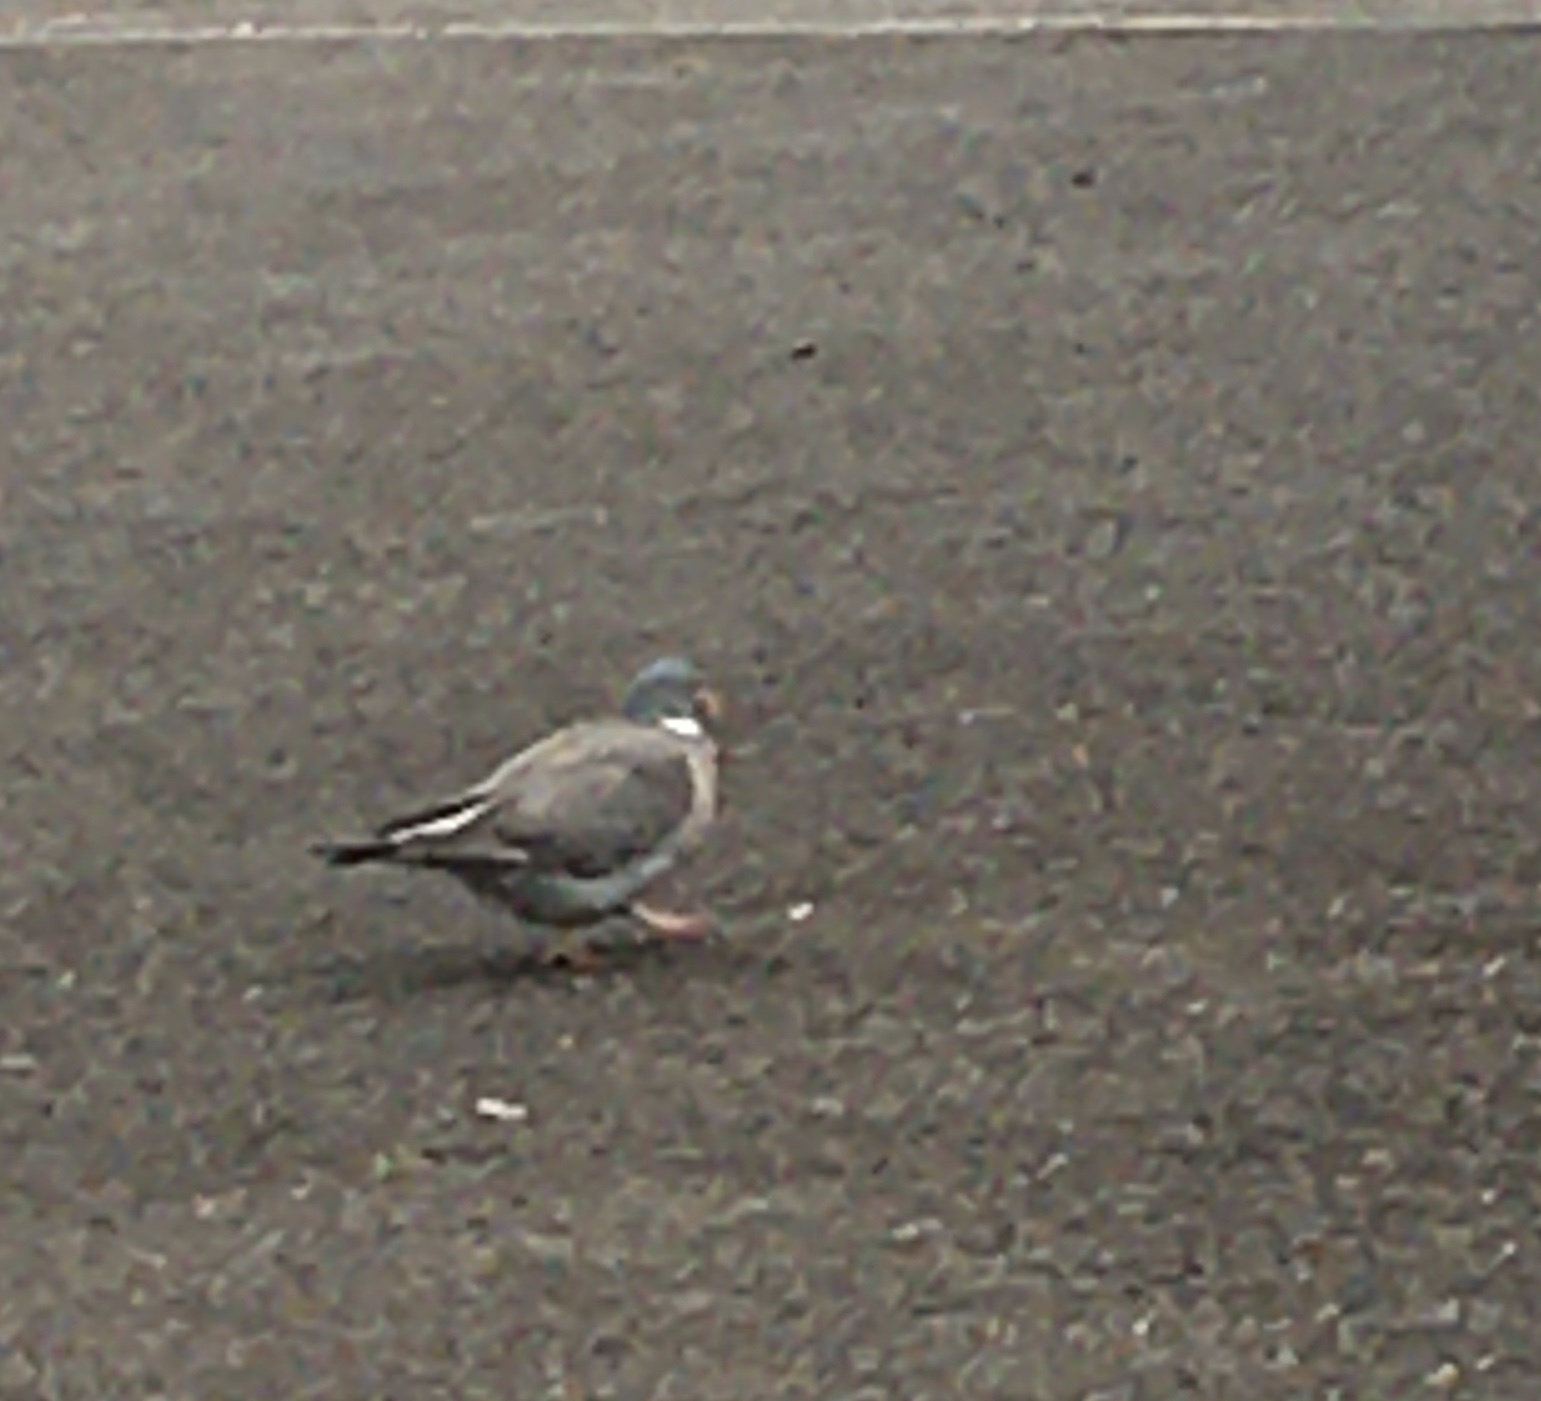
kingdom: Animalia
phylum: Chordata
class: Aves
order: Columbiformes
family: Columbidae
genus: Columba
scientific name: Columba palumbus
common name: Common wood pigeon
